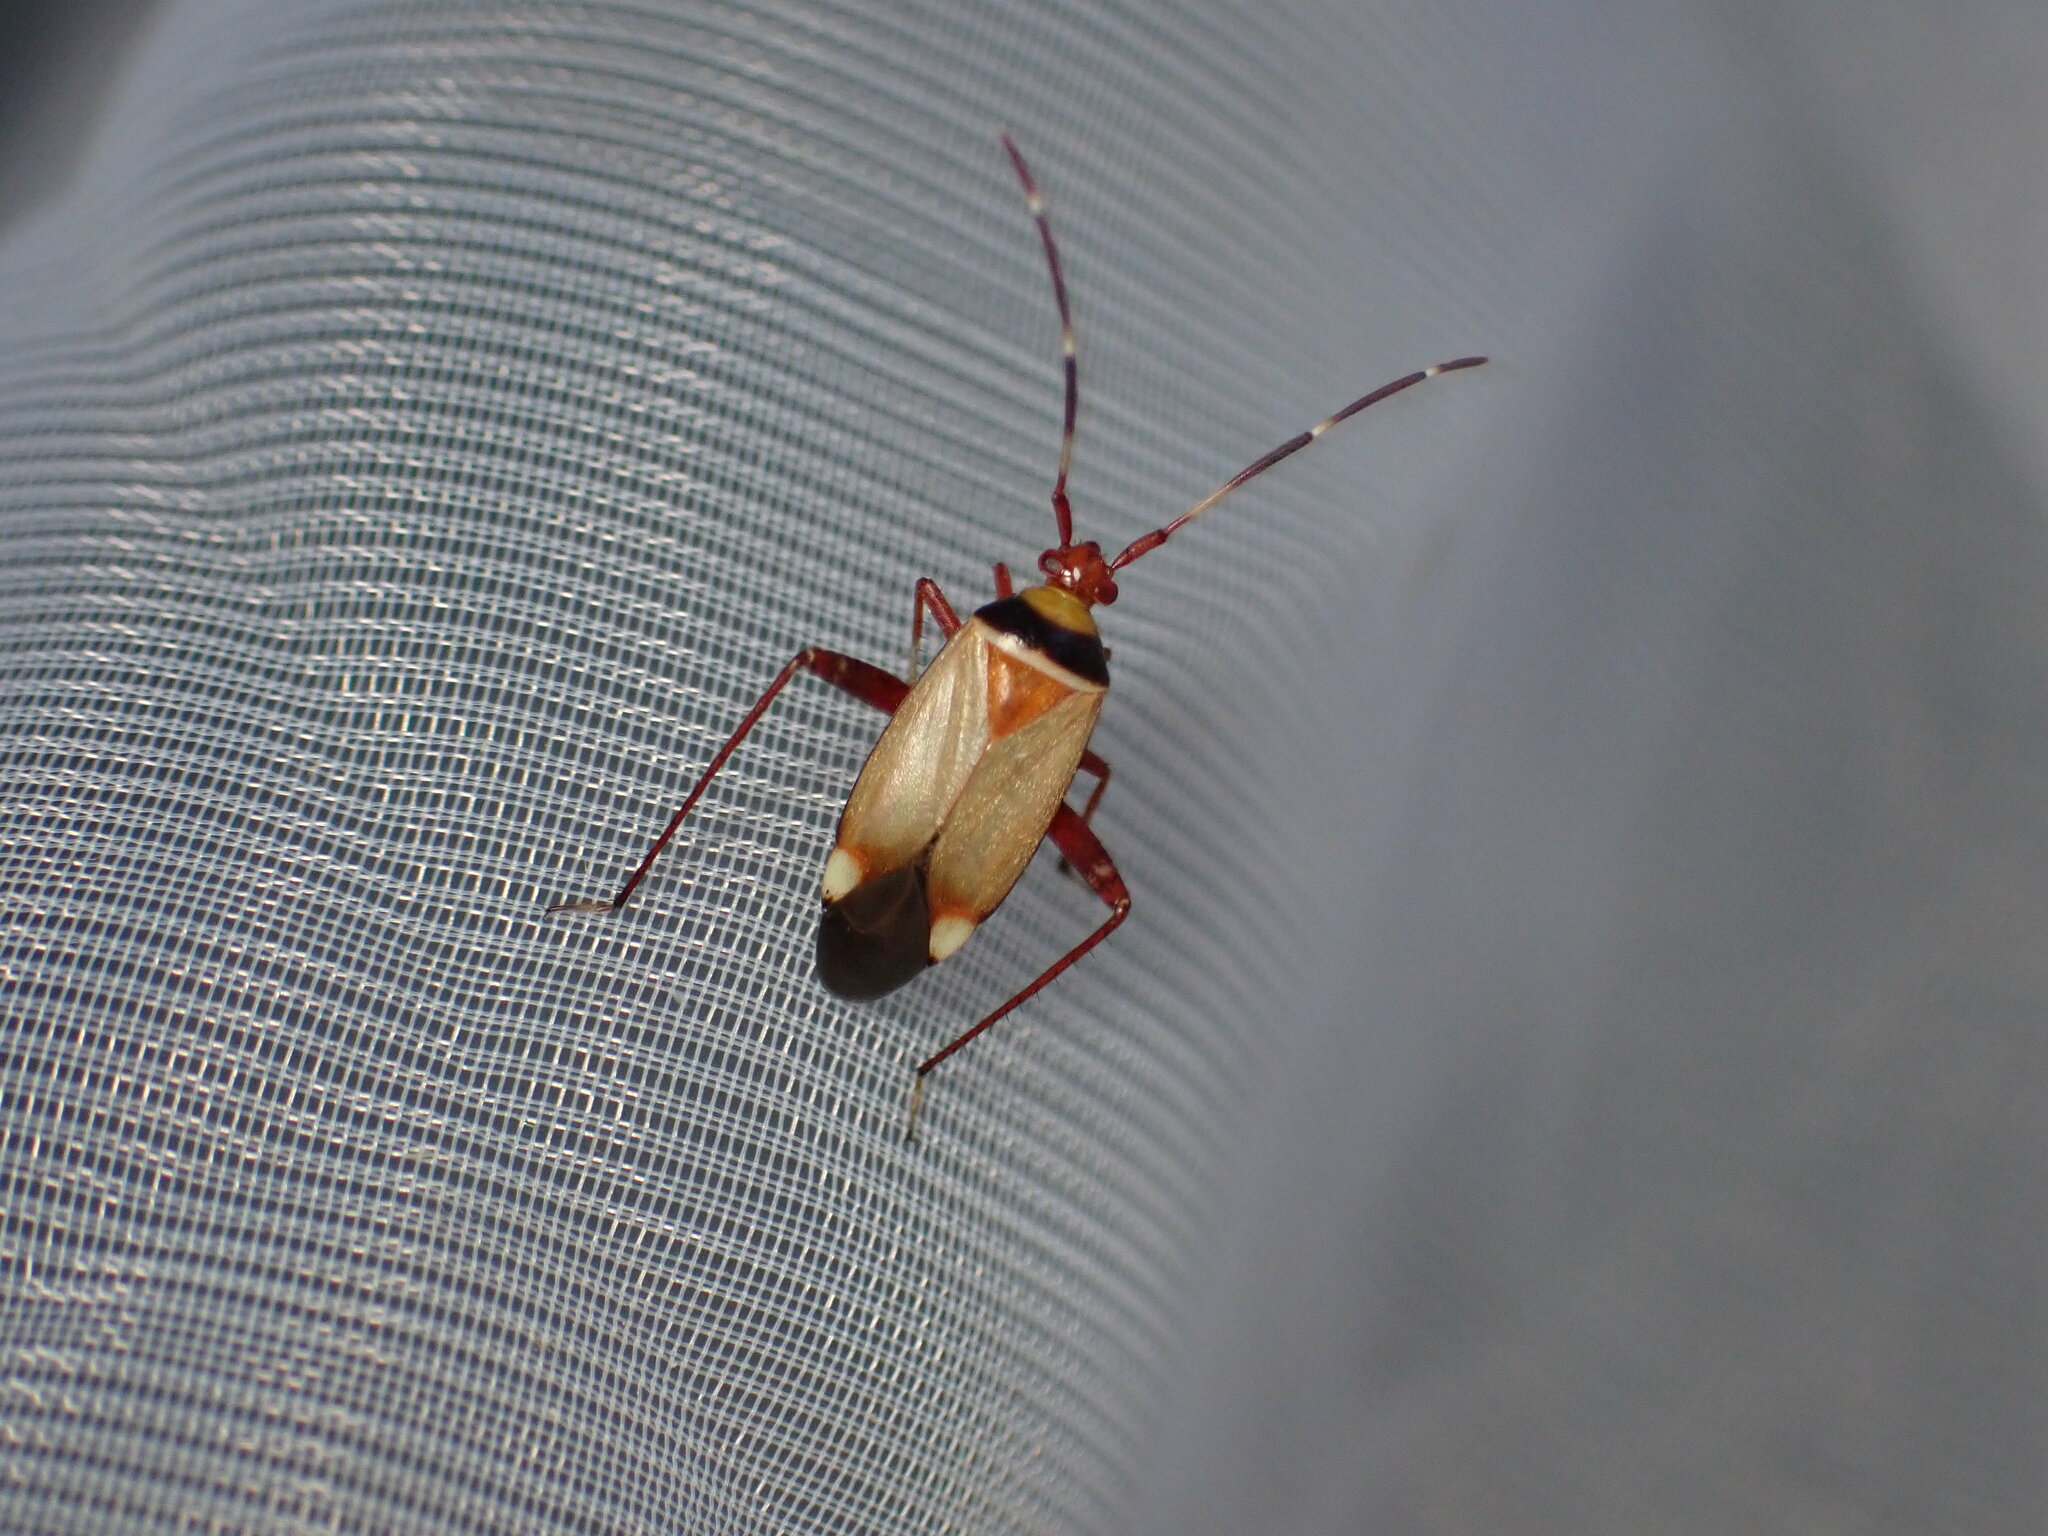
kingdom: Animalia
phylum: Arthropoda
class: Insecta
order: Hemiptera
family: Miridae
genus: Adelphocoris
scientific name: Adelphocoris vandalicus
